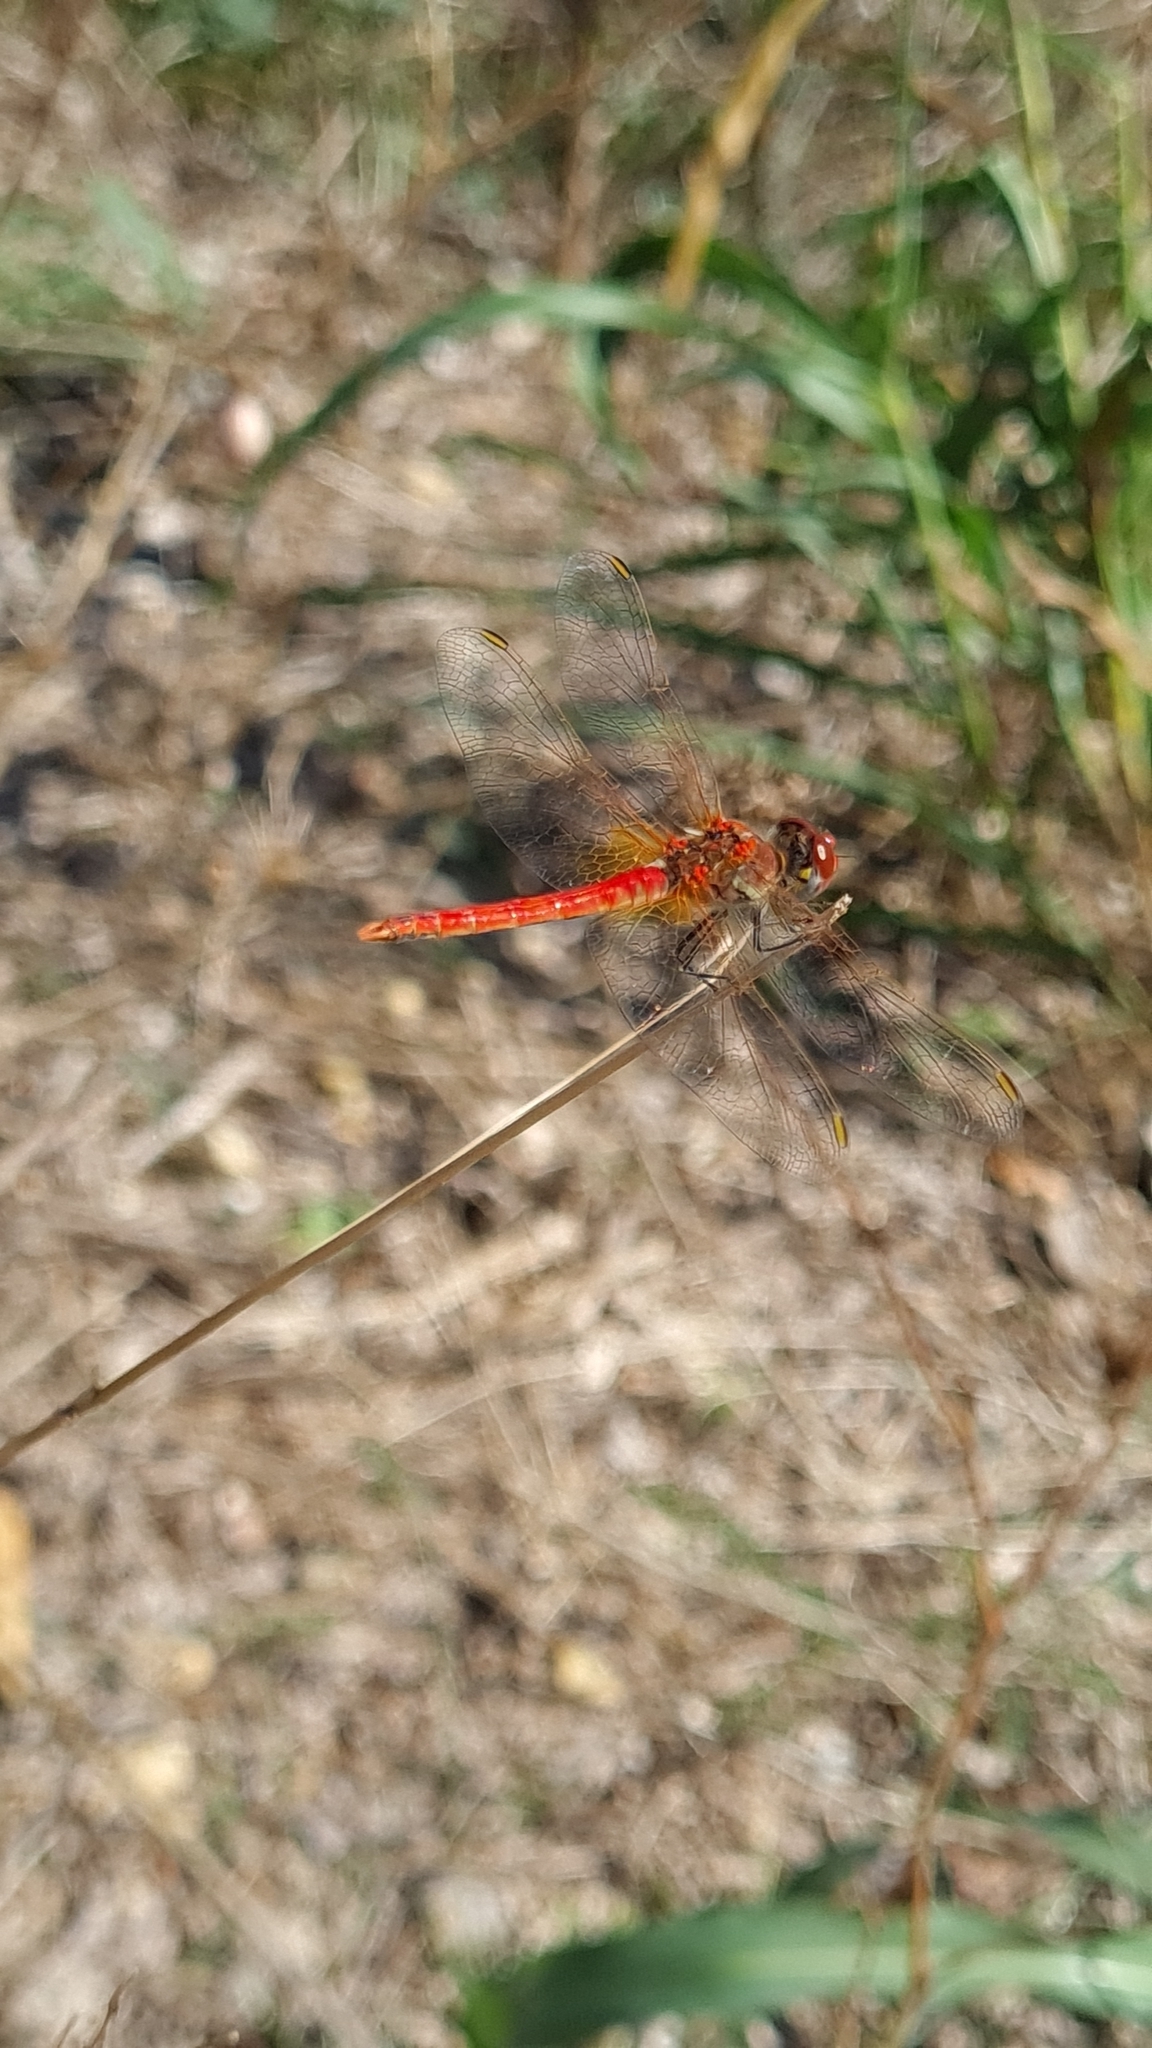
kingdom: Animalia
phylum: Arthropoda
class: Insecta
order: Odonata
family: Libellulidae
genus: Sympetrum
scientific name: Sympetrum fonscolombii
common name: Red-veined darter
